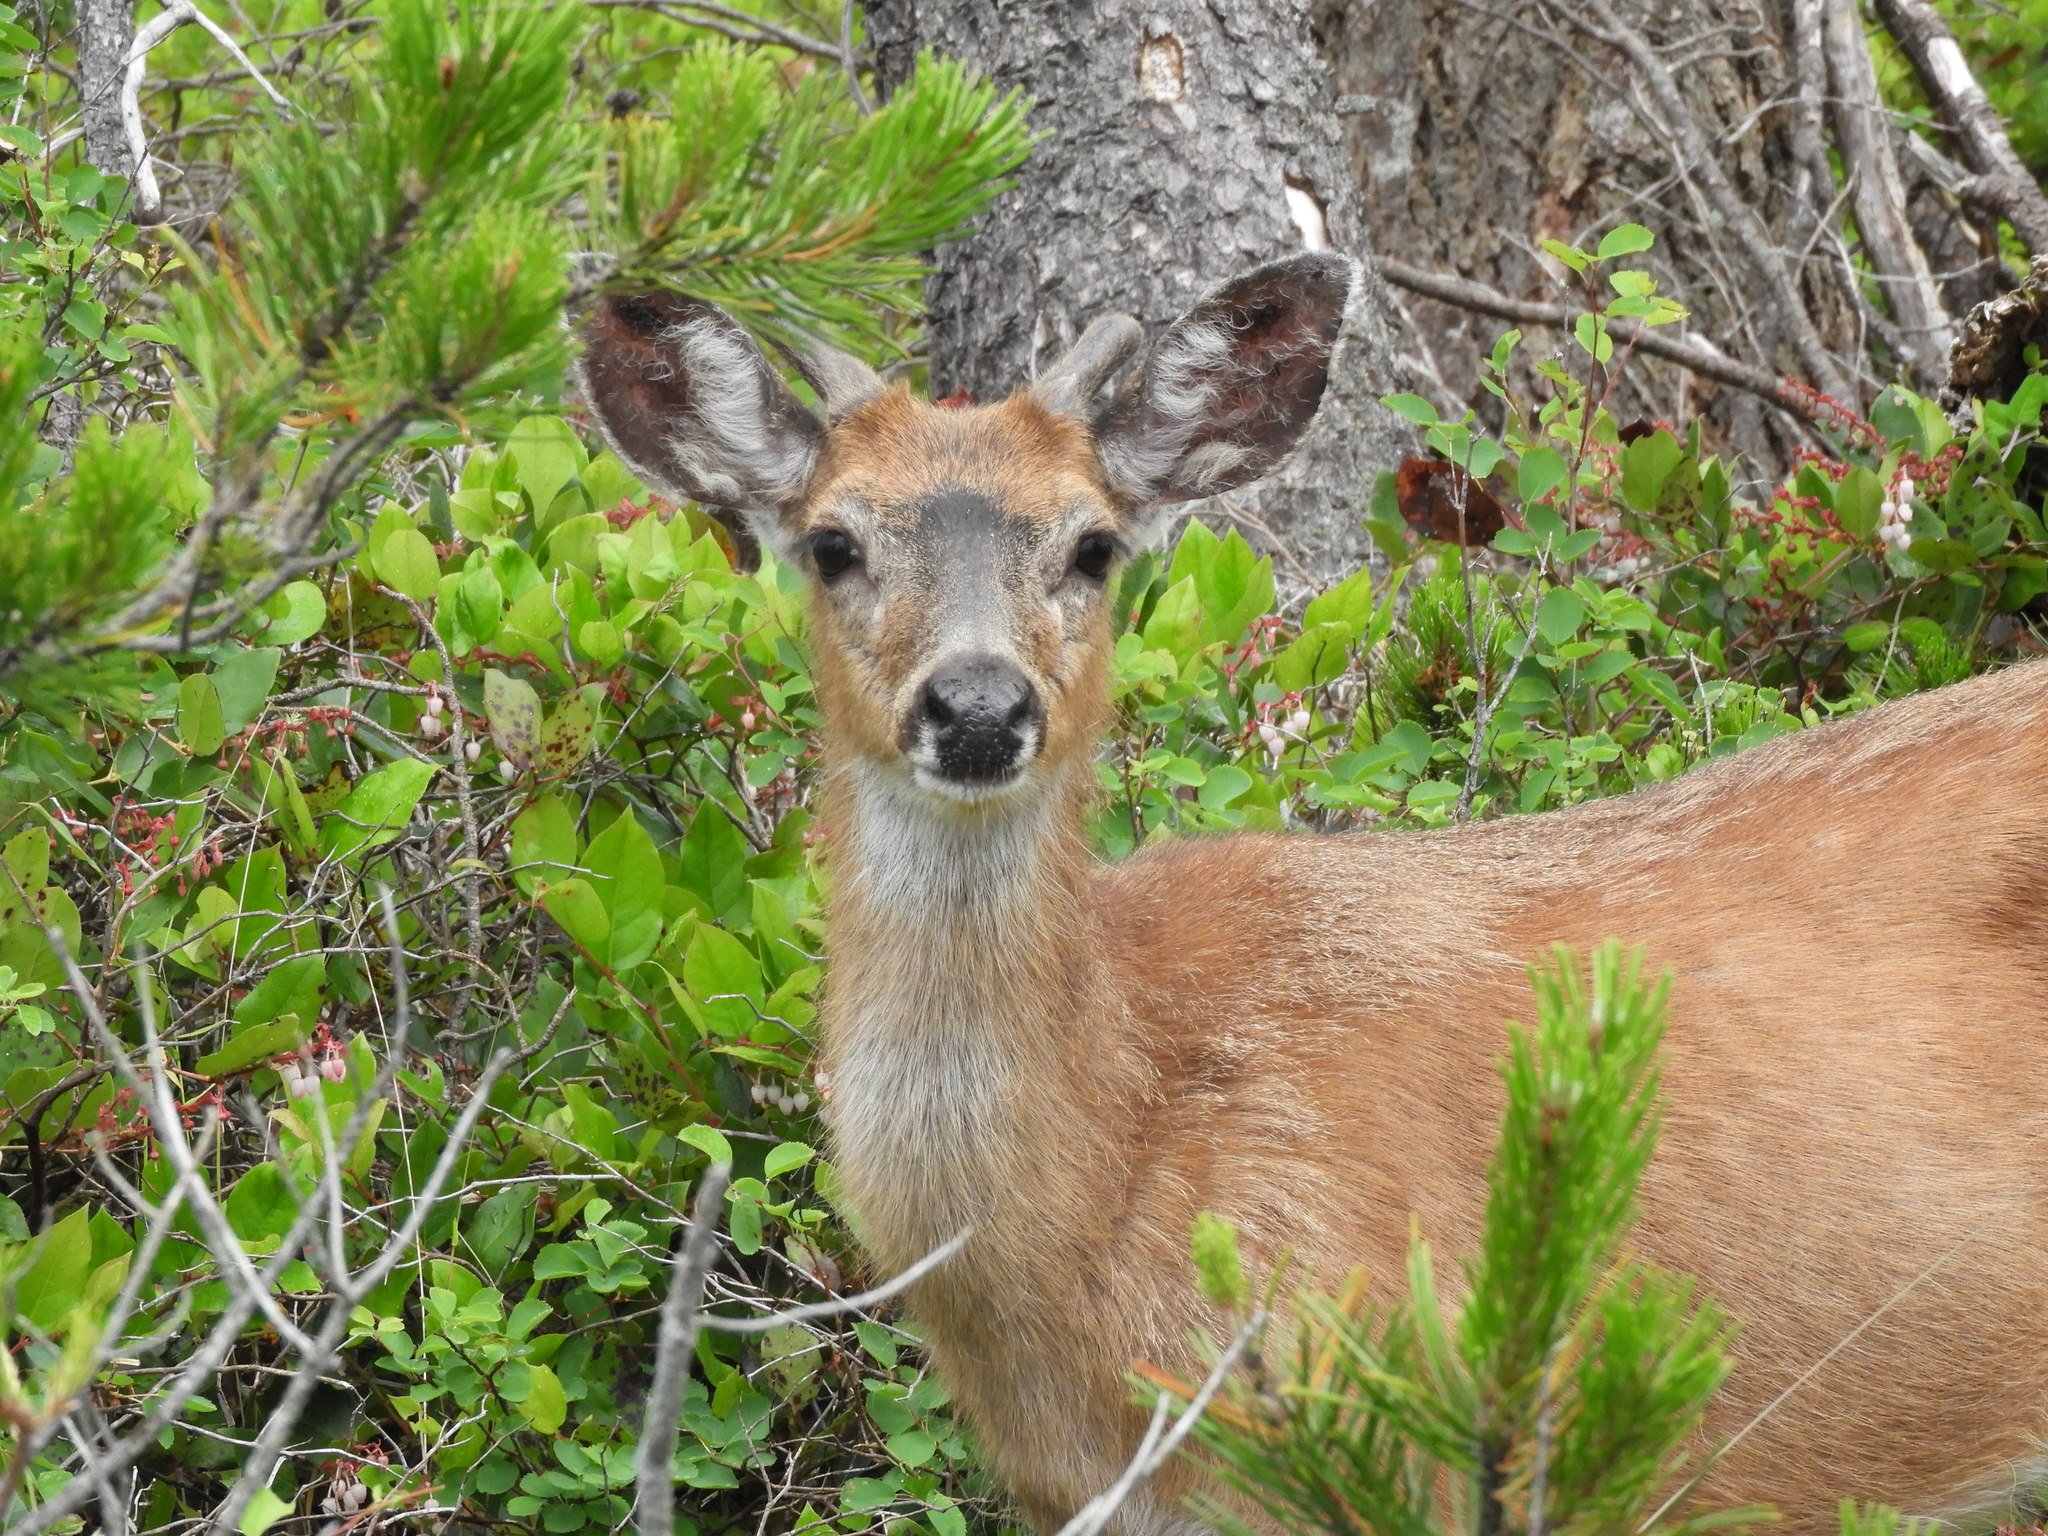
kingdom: Animalia
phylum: Chordata
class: Mammalia
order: Artiodactyla
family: Cervidae
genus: Odocoileus
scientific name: Odocoileus hemionus
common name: Mule deer
